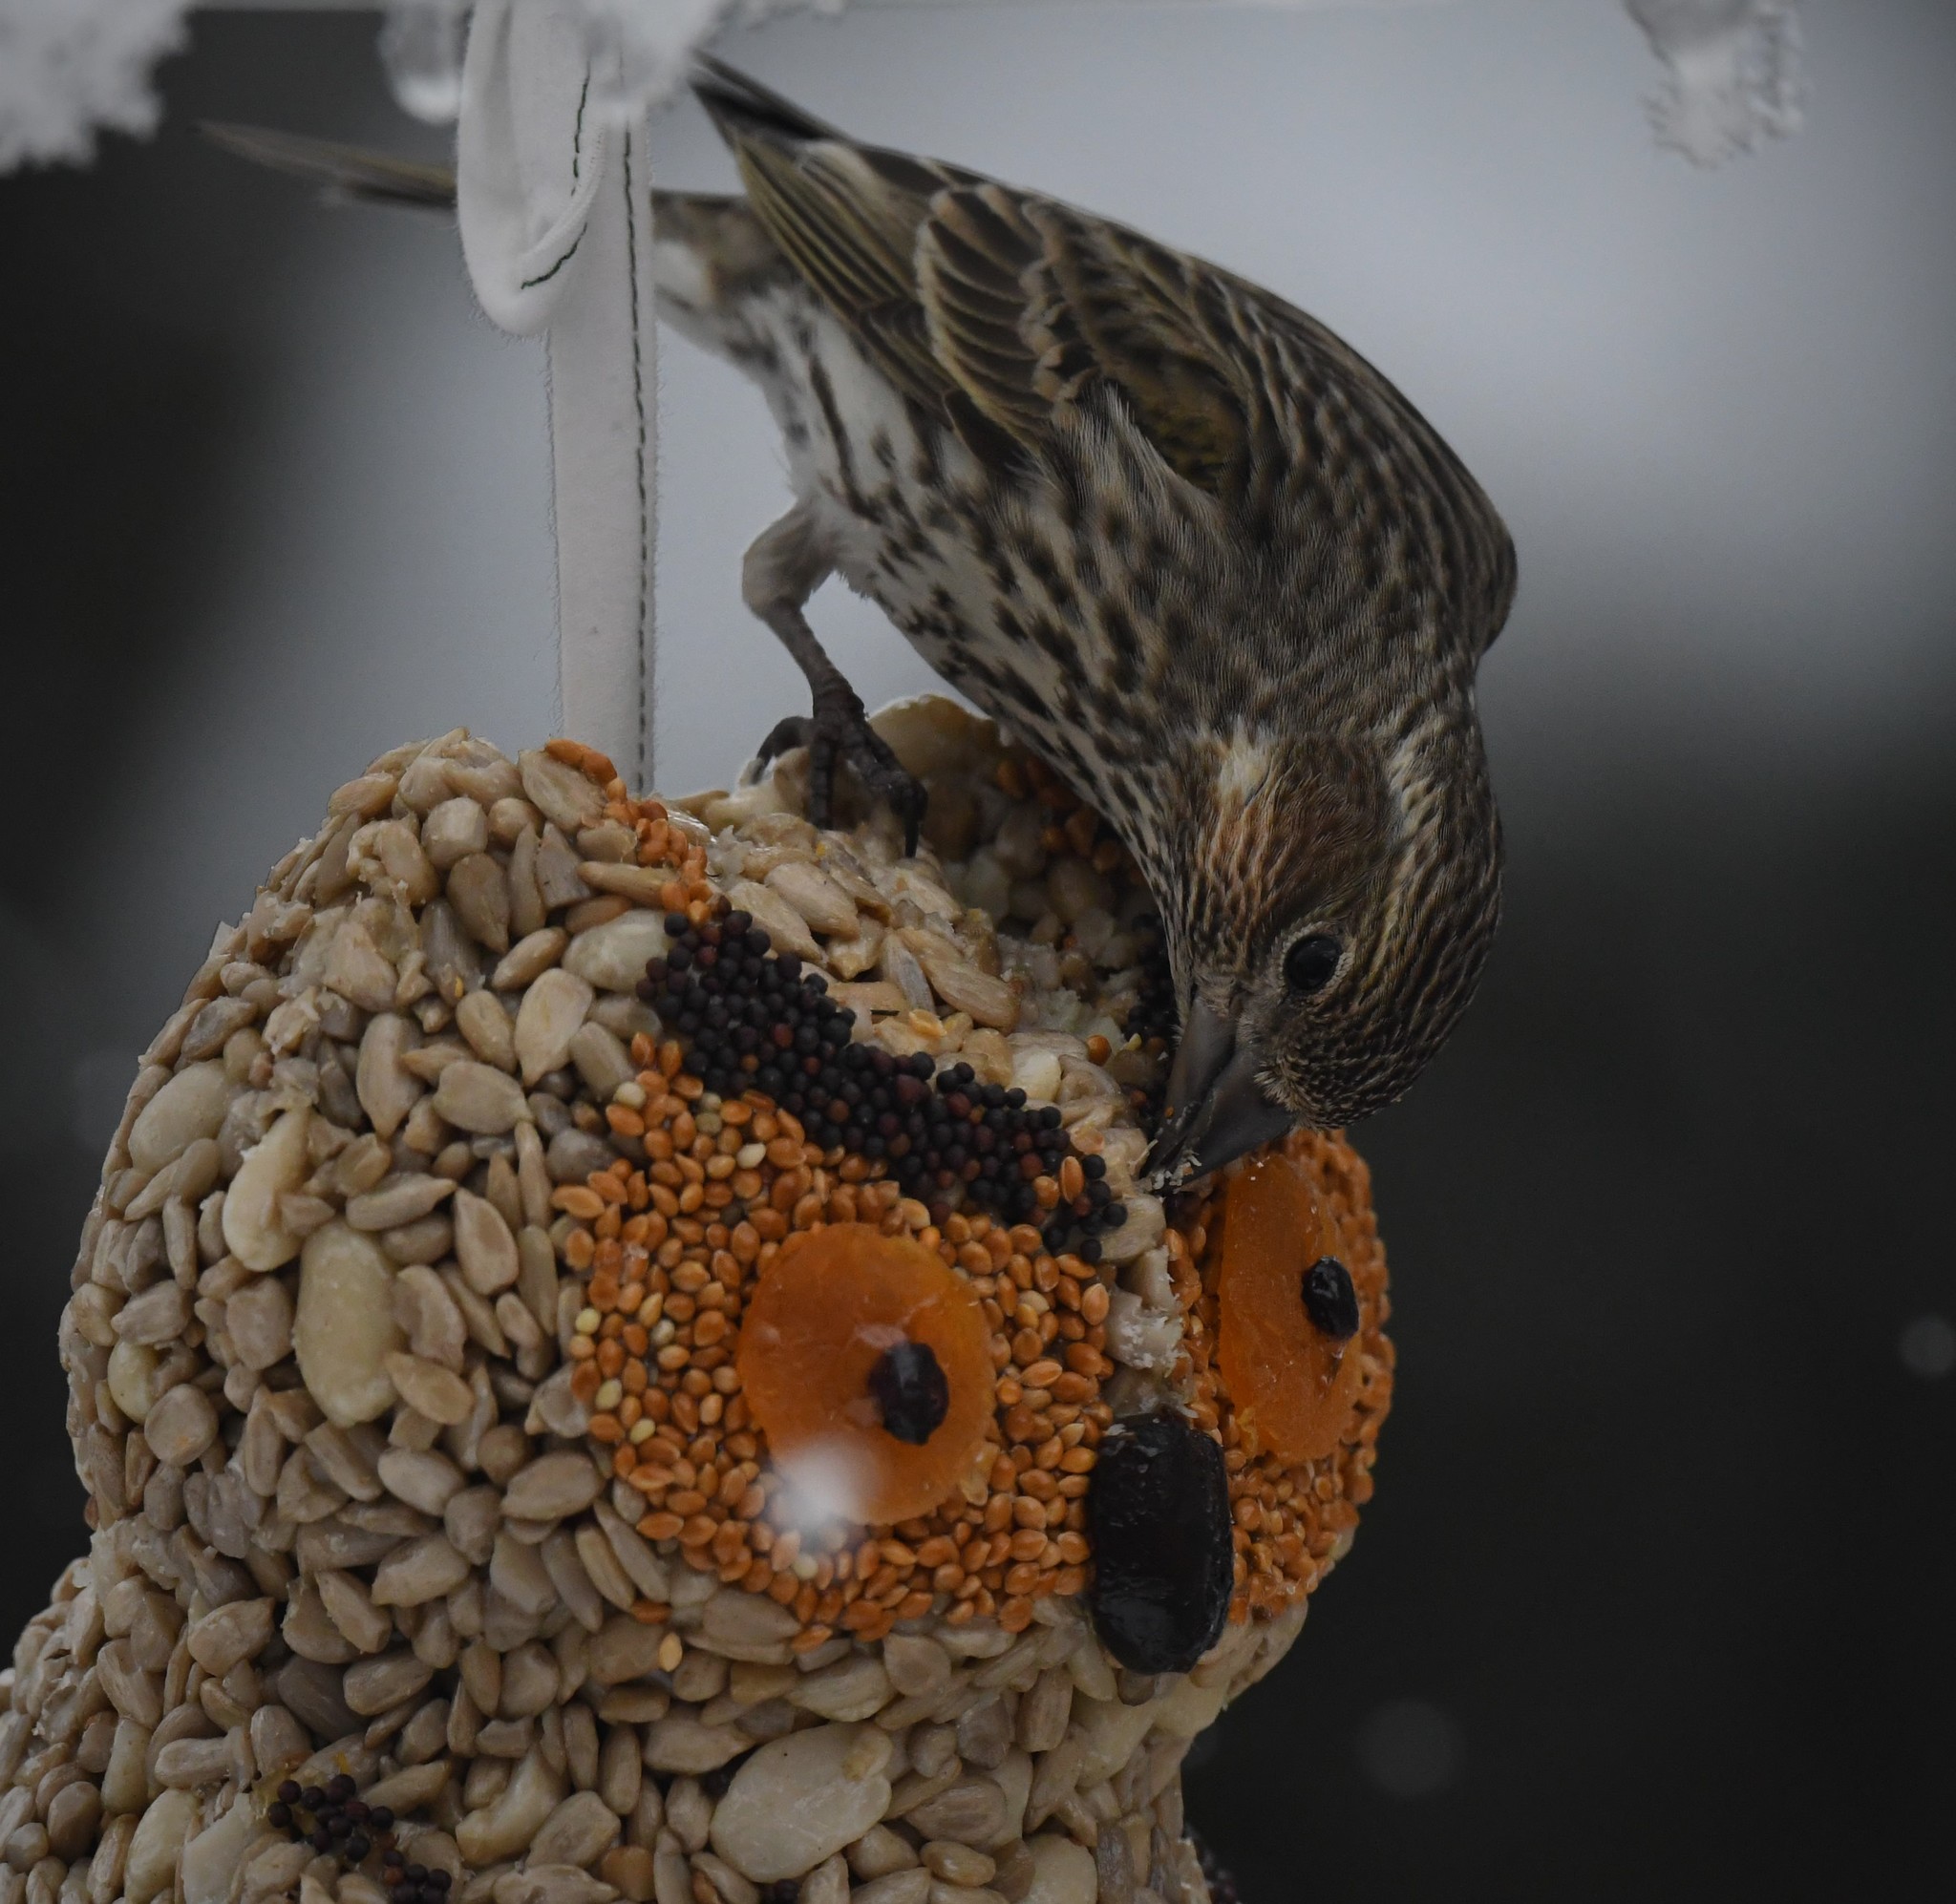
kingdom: Animalia
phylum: Chordata
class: Aves
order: Passeriformes
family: Fringillidae
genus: Haemorhous
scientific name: Haemorhous cassinii
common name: Cassin's finch
